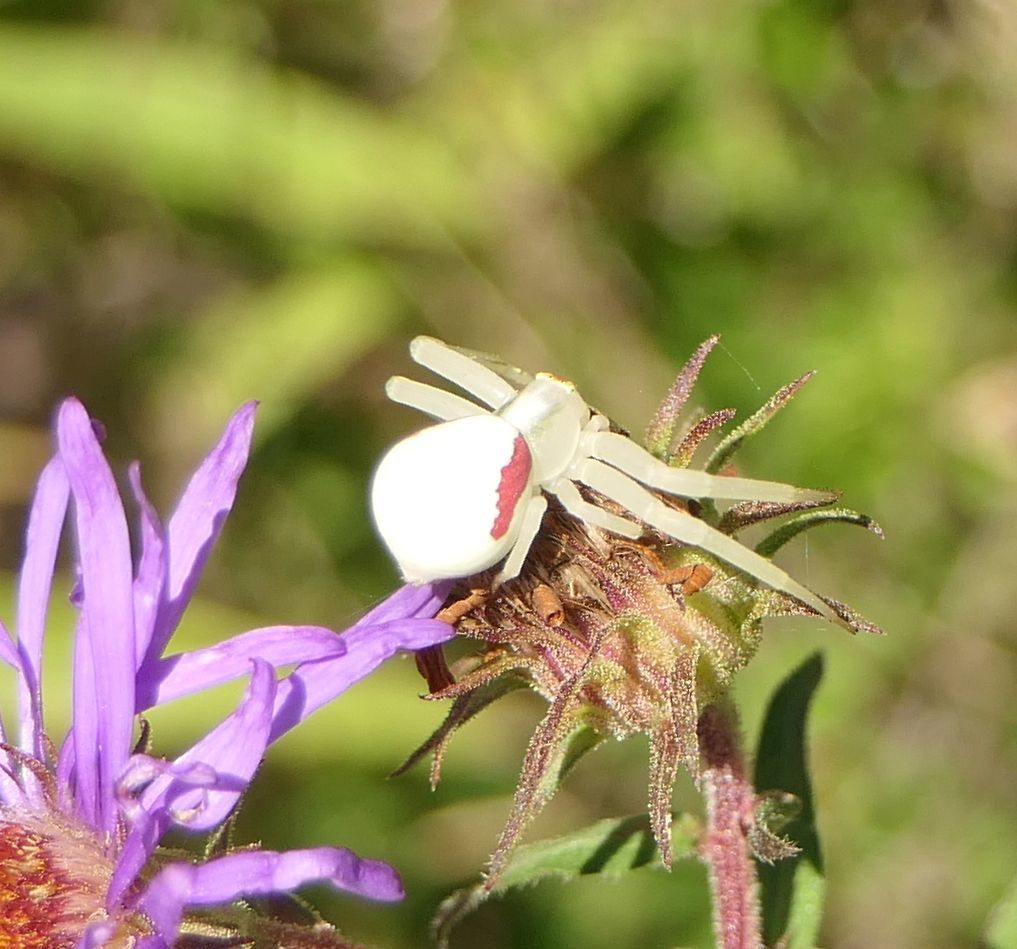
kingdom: Animalia
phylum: Arthropoda
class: Arachnida
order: Araneae
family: Thomisidae
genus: Misumena
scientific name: Misumena vatia
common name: Goldenrod crab spider
